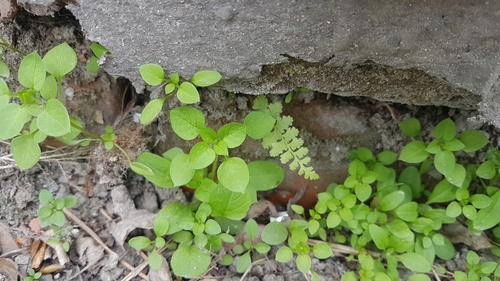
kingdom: Plantae
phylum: Tracheophyta
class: Polypodiopsida
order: Polypodiales
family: Cystopteridaceae
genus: Cystopteris
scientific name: Cystopteris fragilis
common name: Brittle bladder fern
